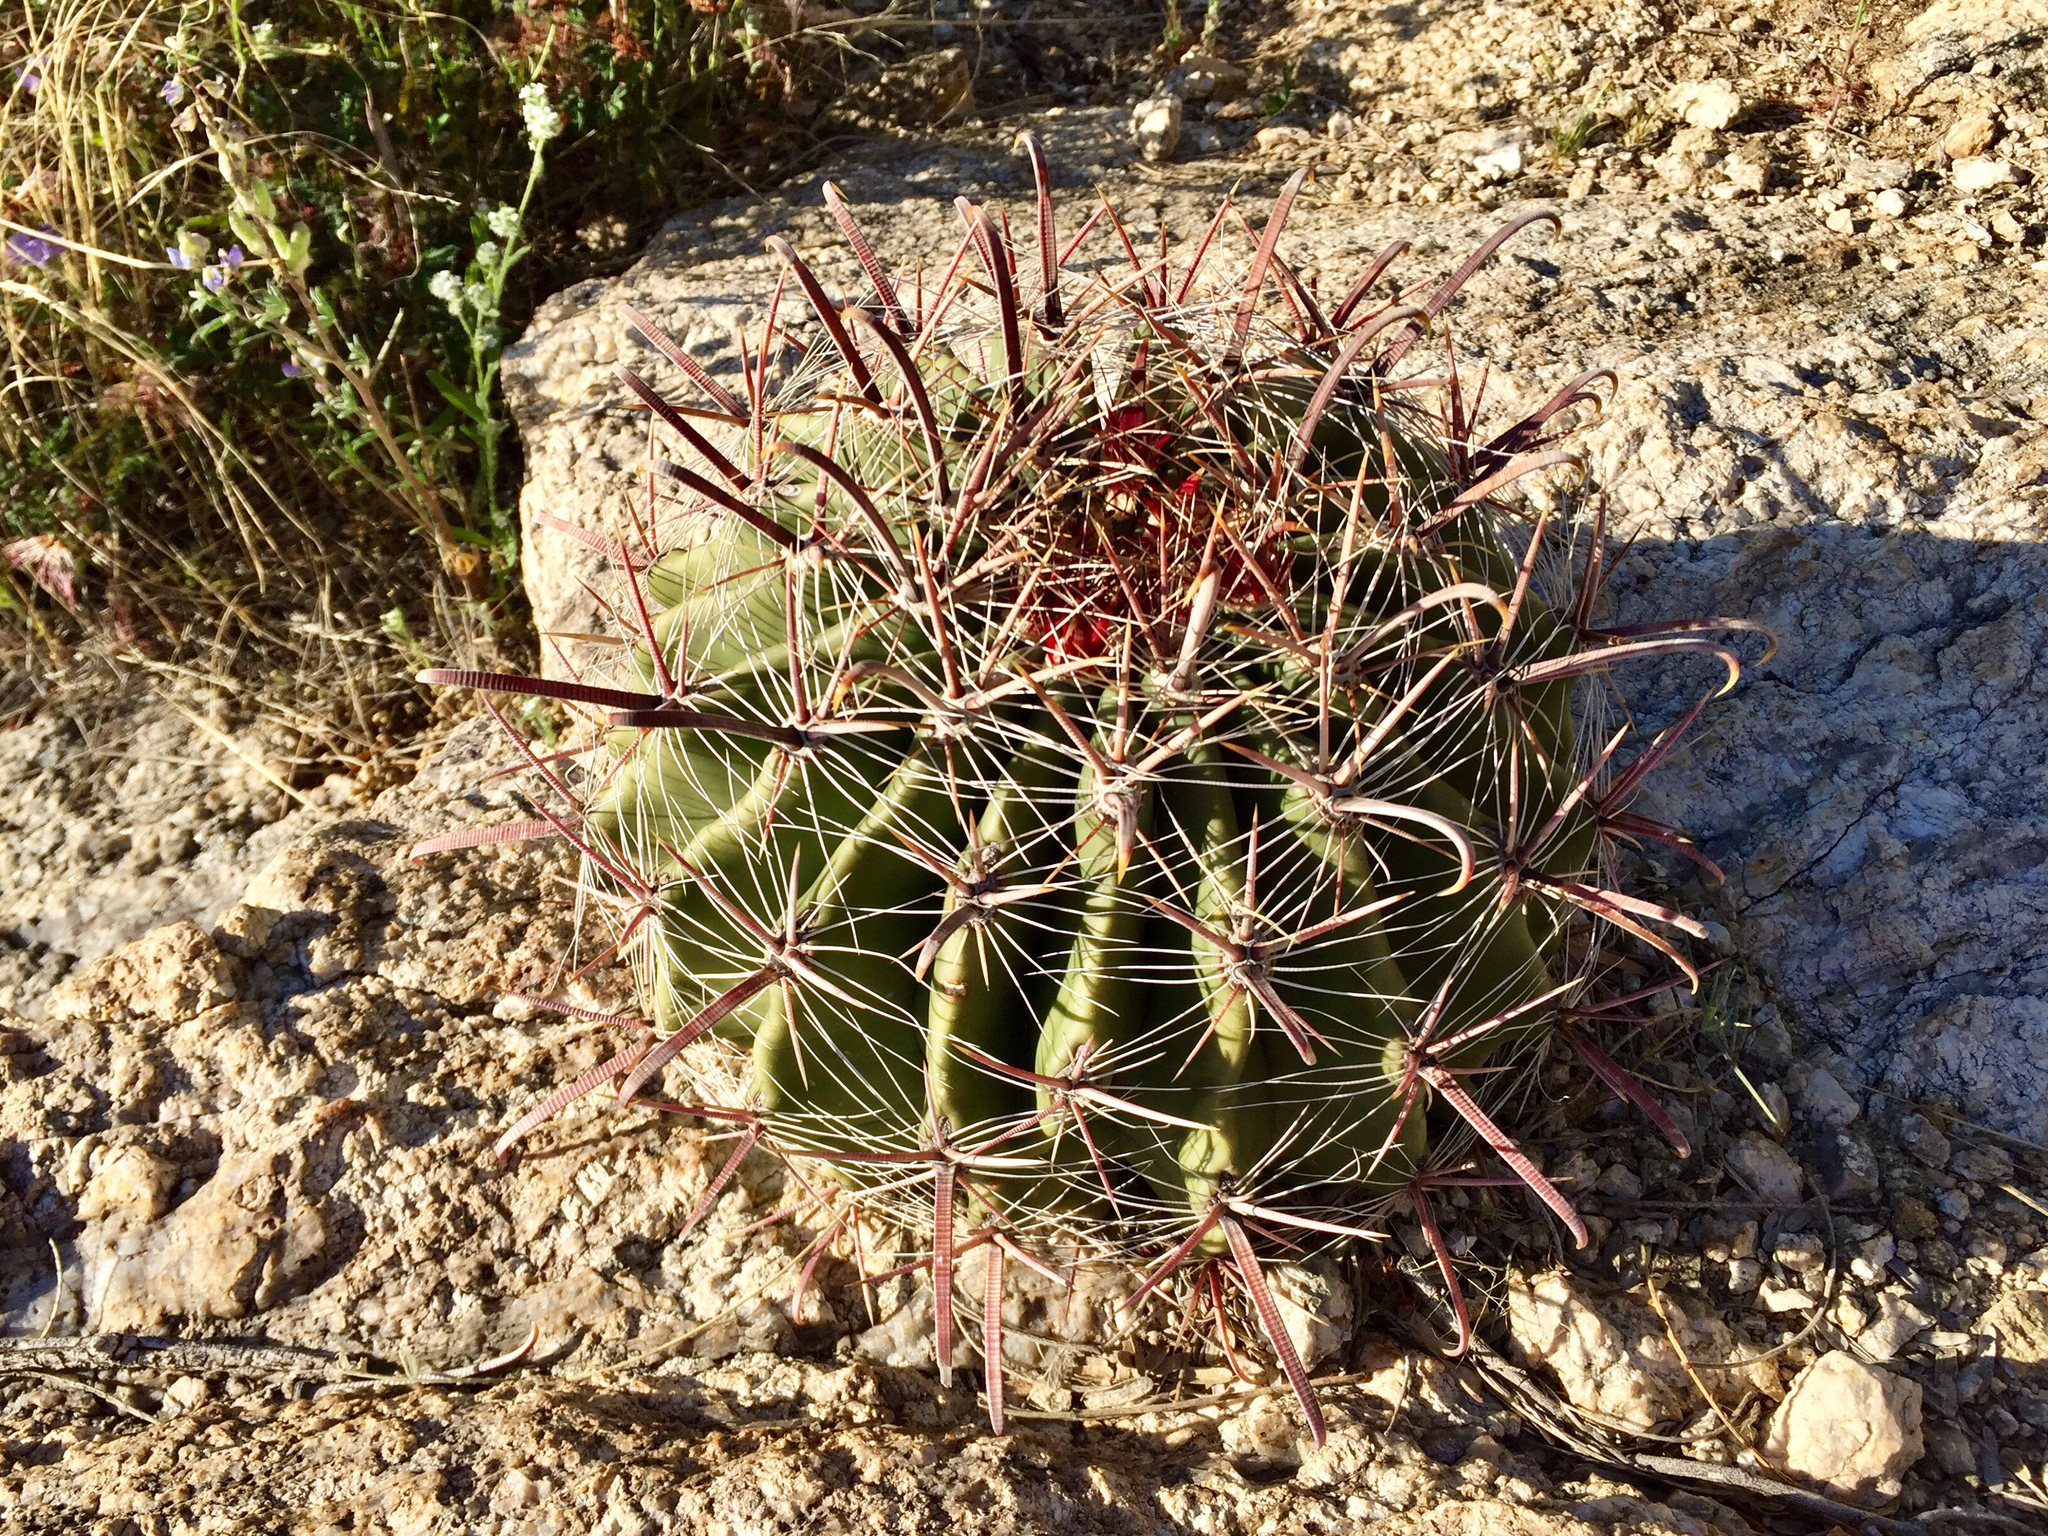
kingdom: Plantae
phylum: Tracheophyta
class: Magnoliopsida
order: Caryophyllales
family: Cactaceae
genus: Ferocactus
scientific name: Ferocactus wislizeni
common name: Candy barrel cactus
